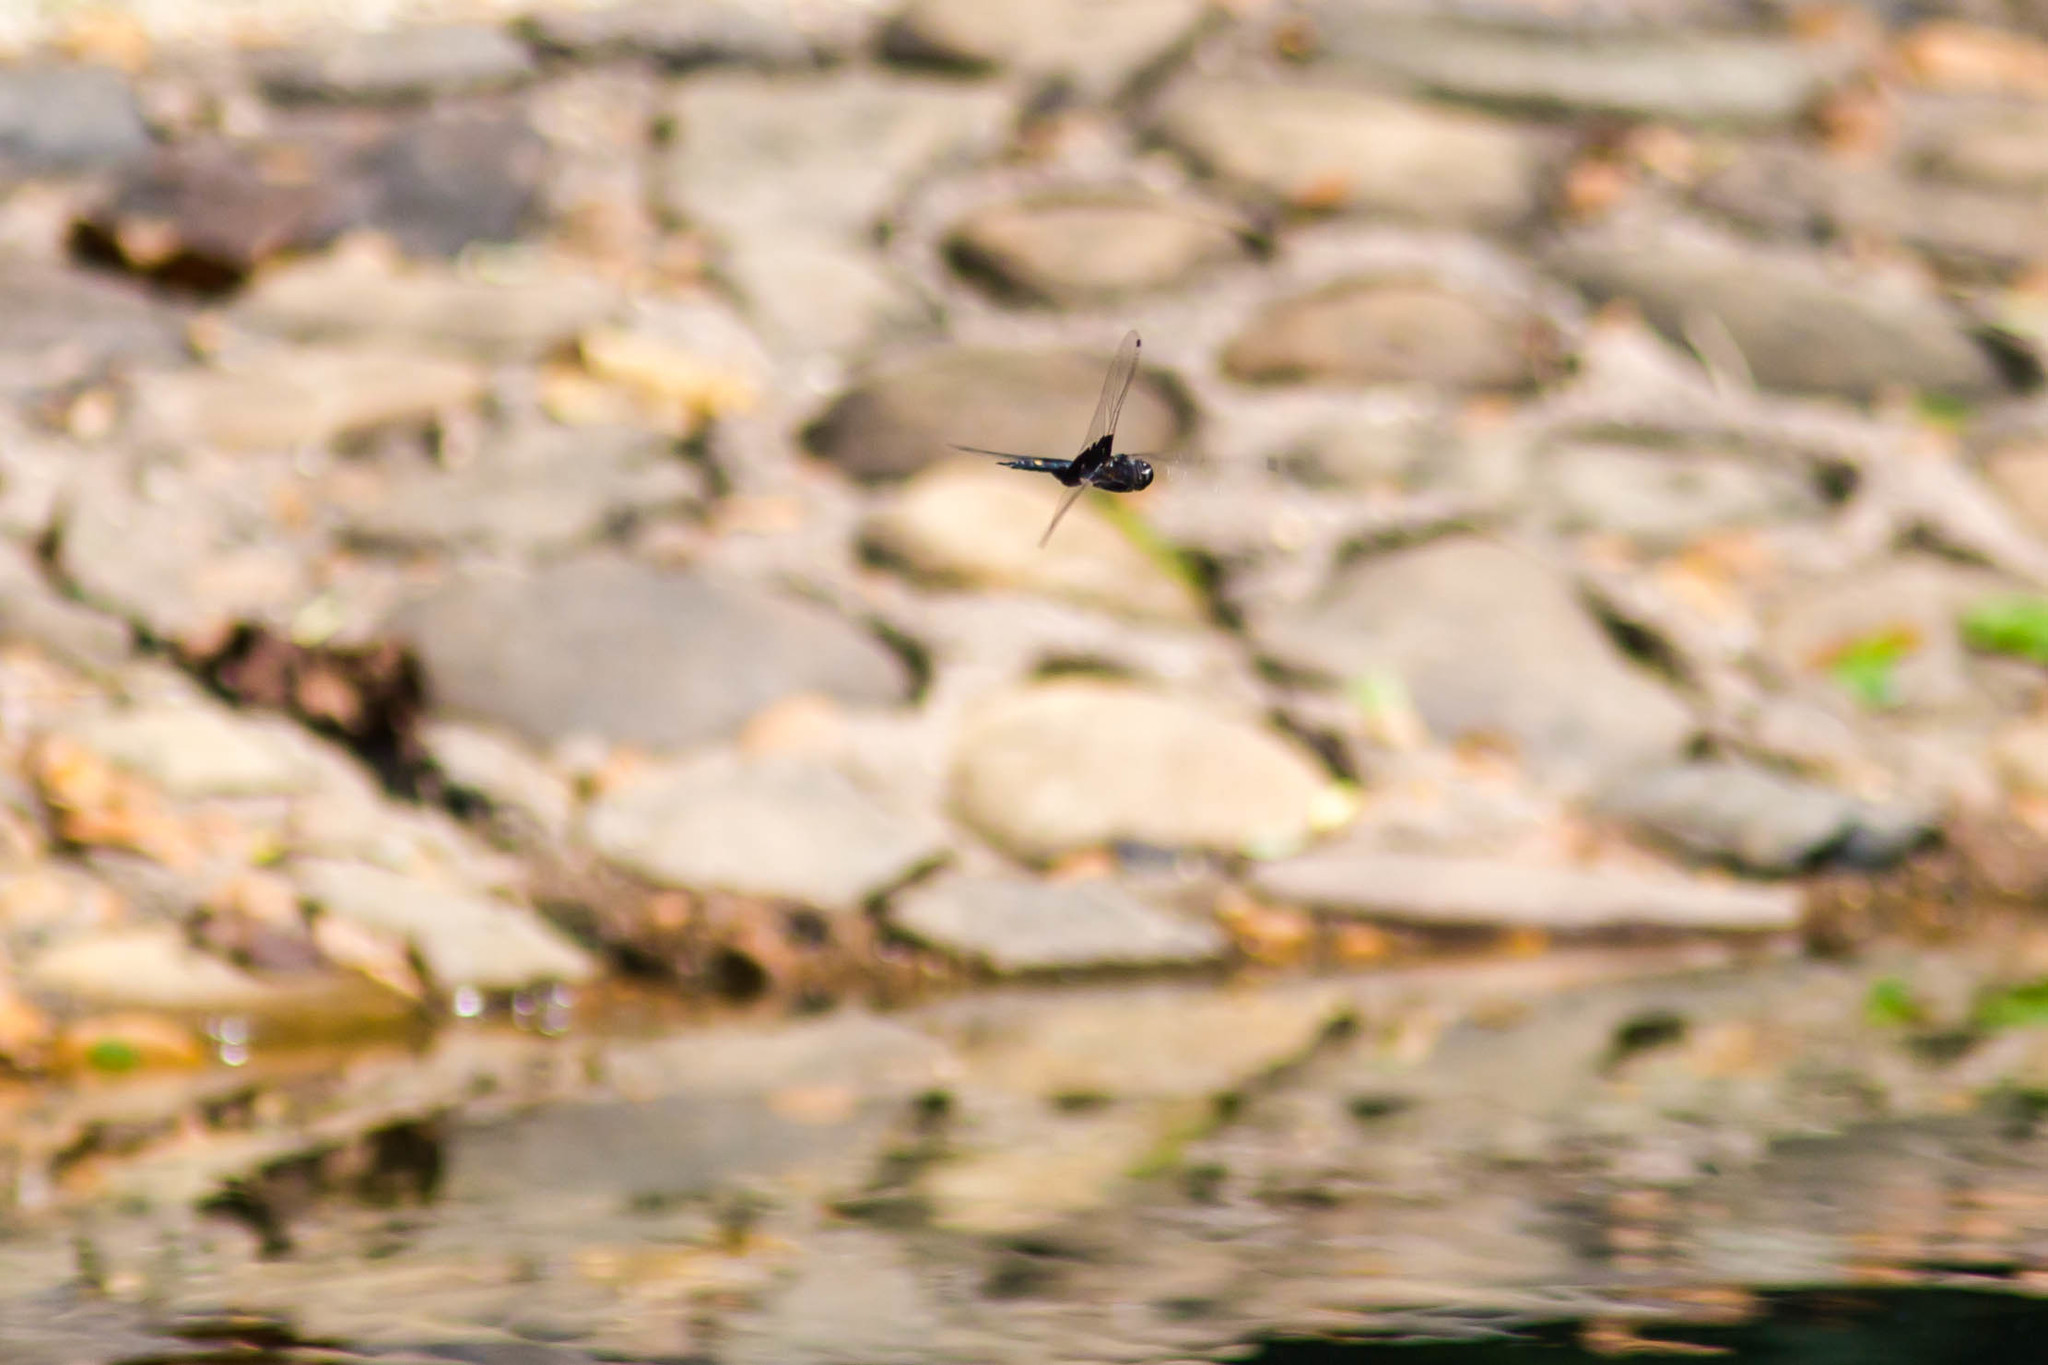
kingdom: Animalia
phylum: Arthropoda
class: Insecta
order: Odonata
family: Libellulidae
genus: Tramea
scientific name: Tramea lacerata
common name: Black saddlebags
